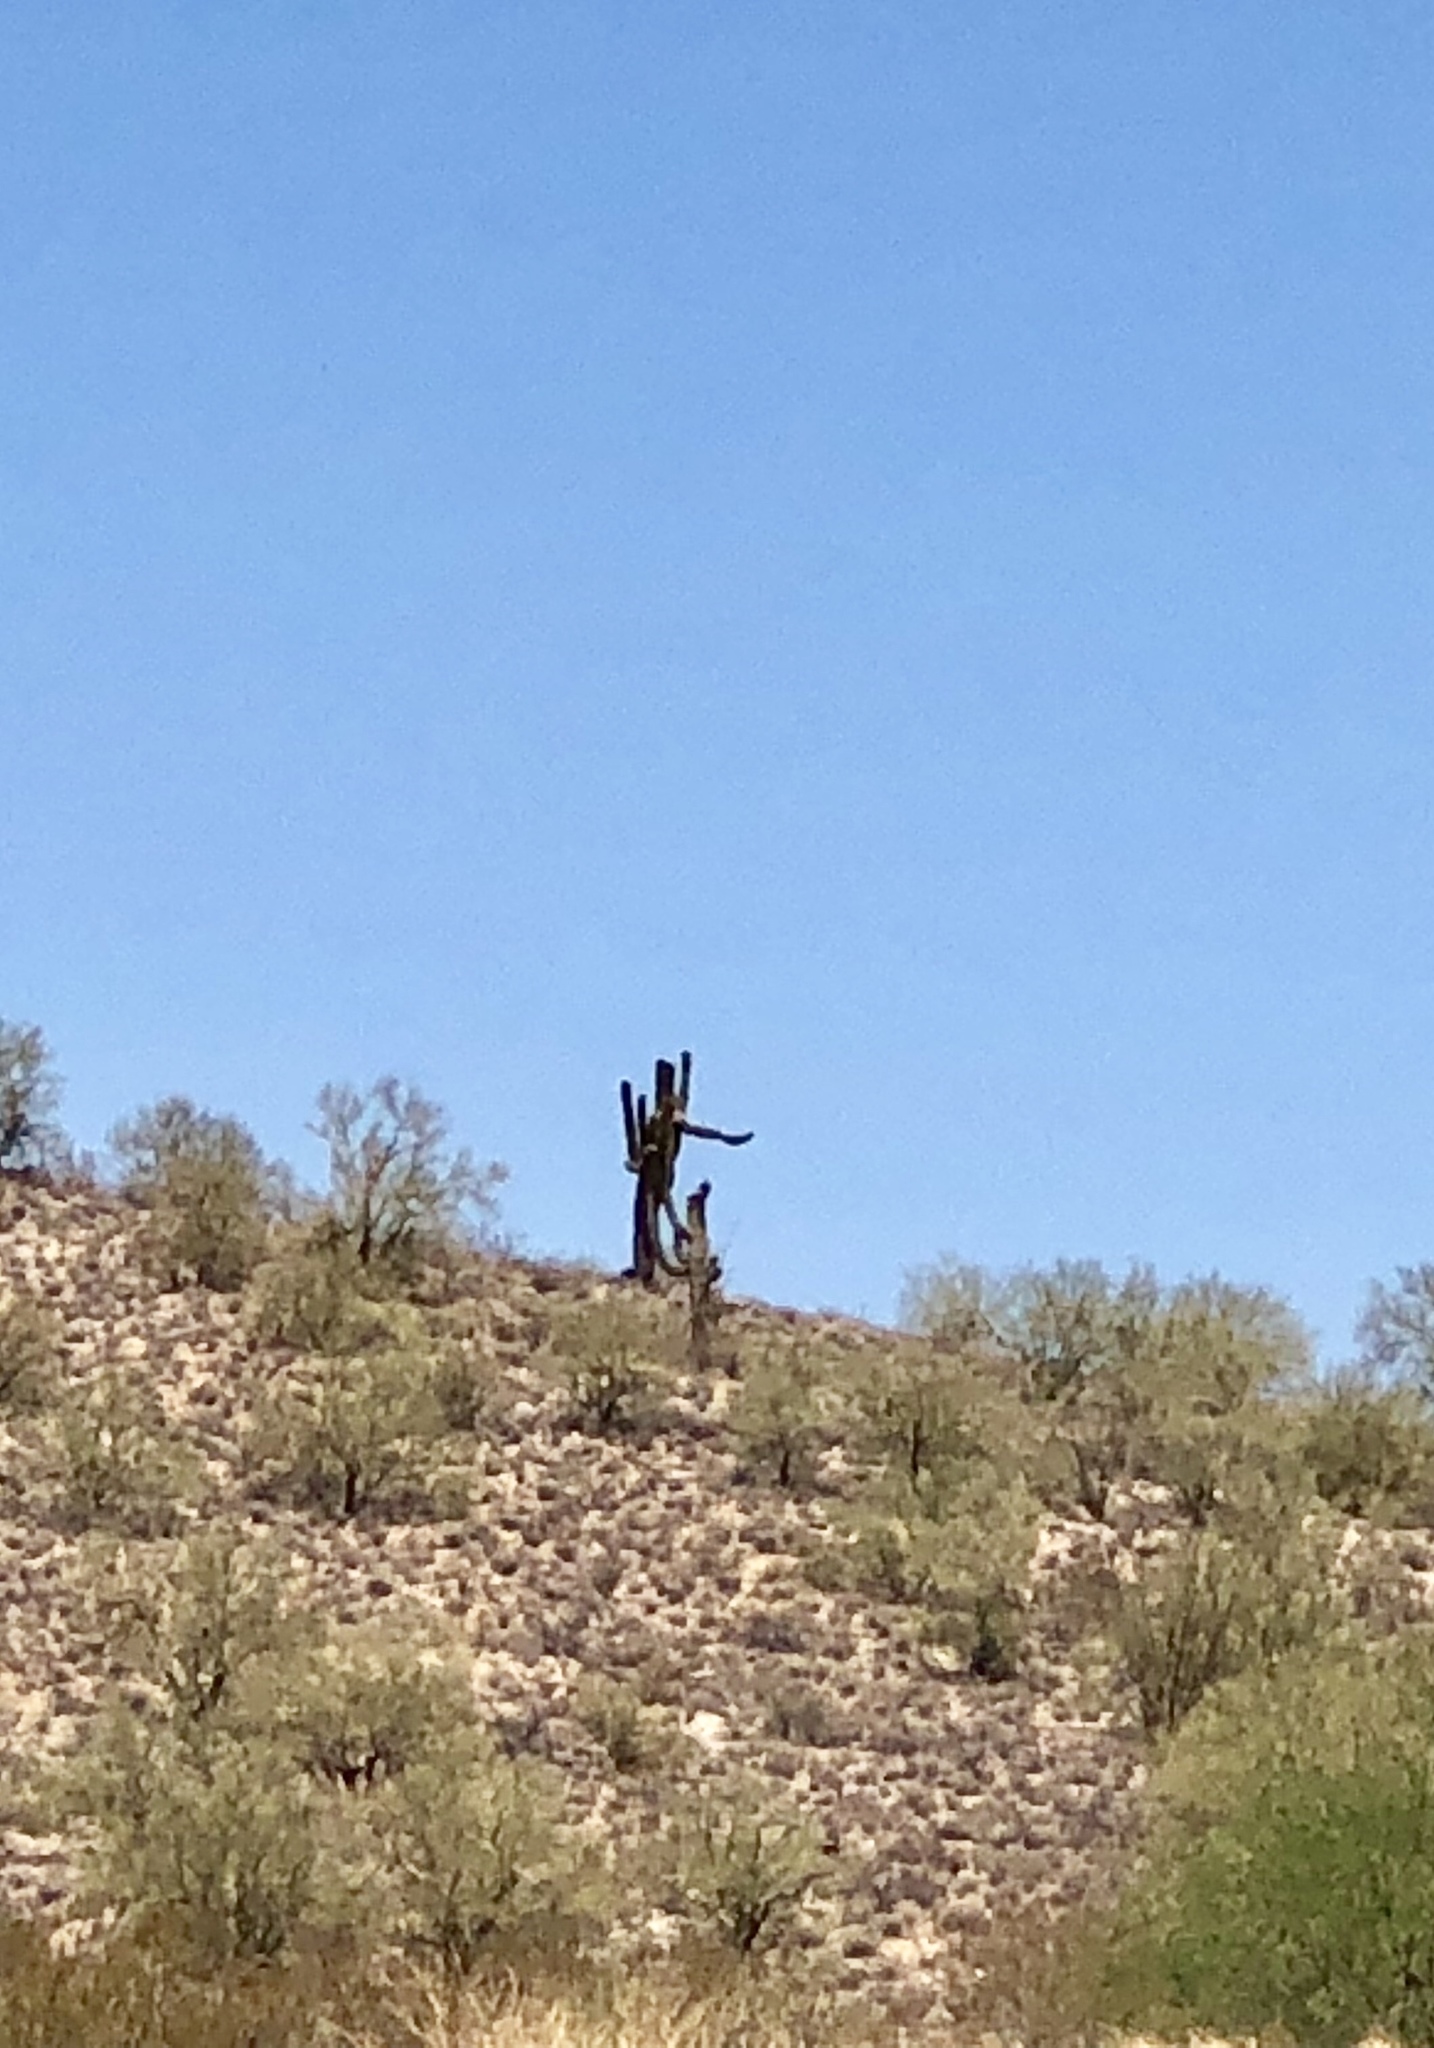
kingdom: Plantae
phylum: Tracheophyta
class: Magnoliopsida
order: Caryophyllales
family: Cactaceae
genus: Carnegiea
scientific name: Carnegiea gigantea
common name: Saguaro
